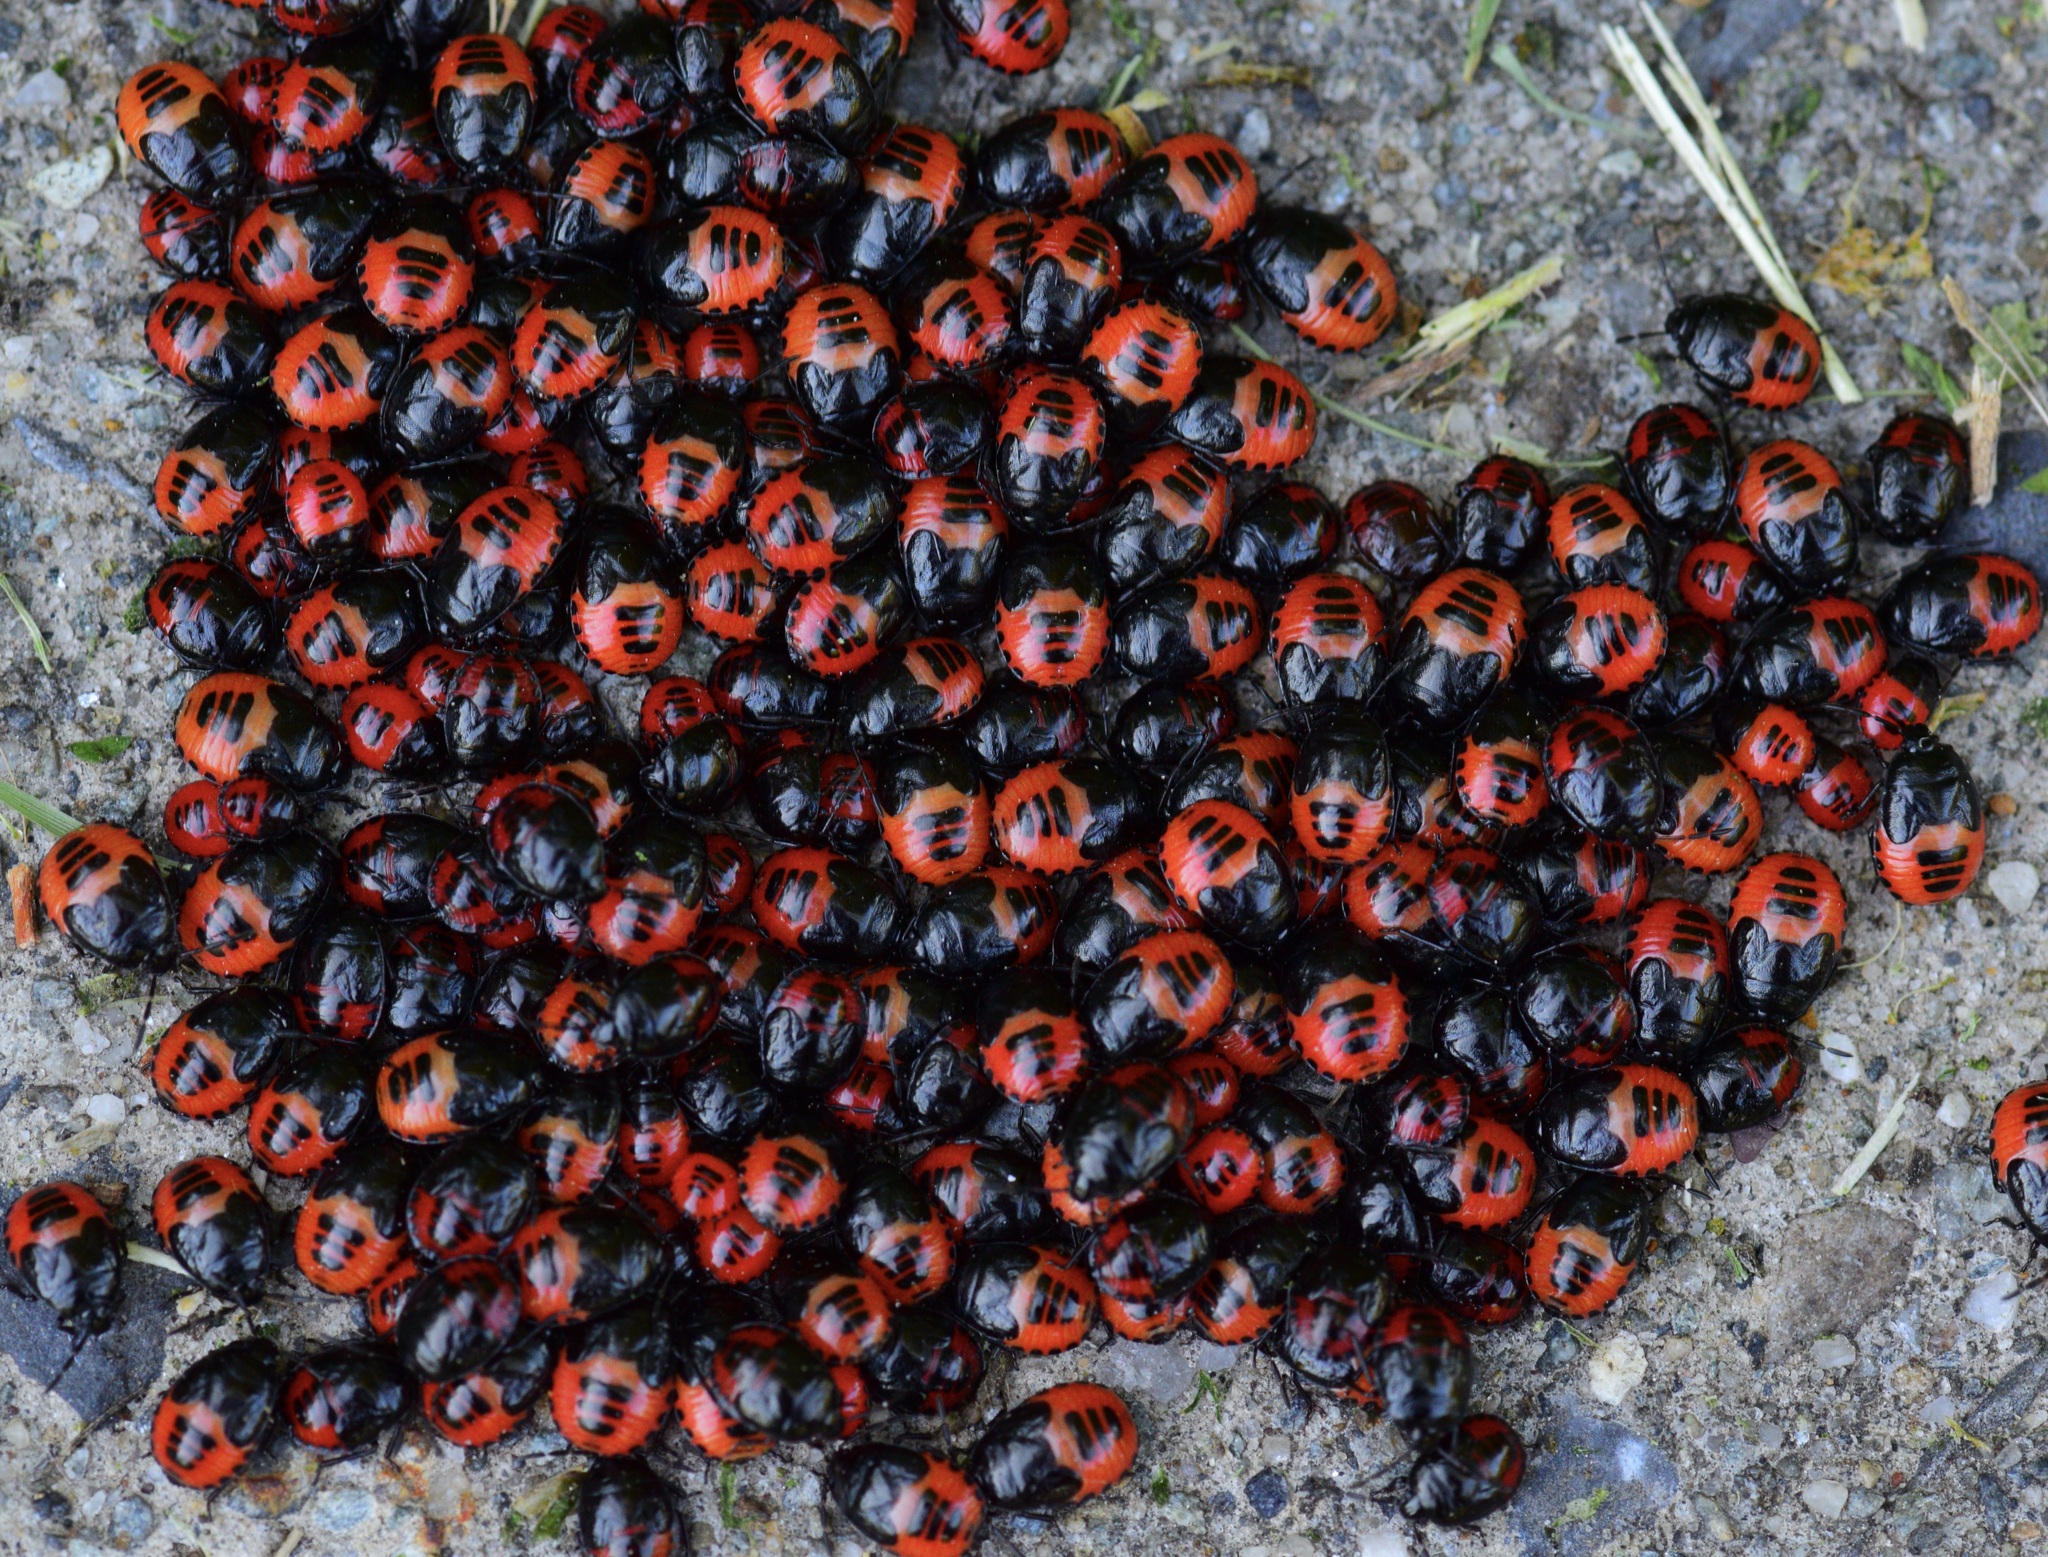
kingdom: Animalia
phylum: Arthropoda
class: Insecta
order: Hemiptera
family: Cydnidae
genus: Sehirus
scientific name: Sehirus cinctus
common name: White-margined burrower bug
